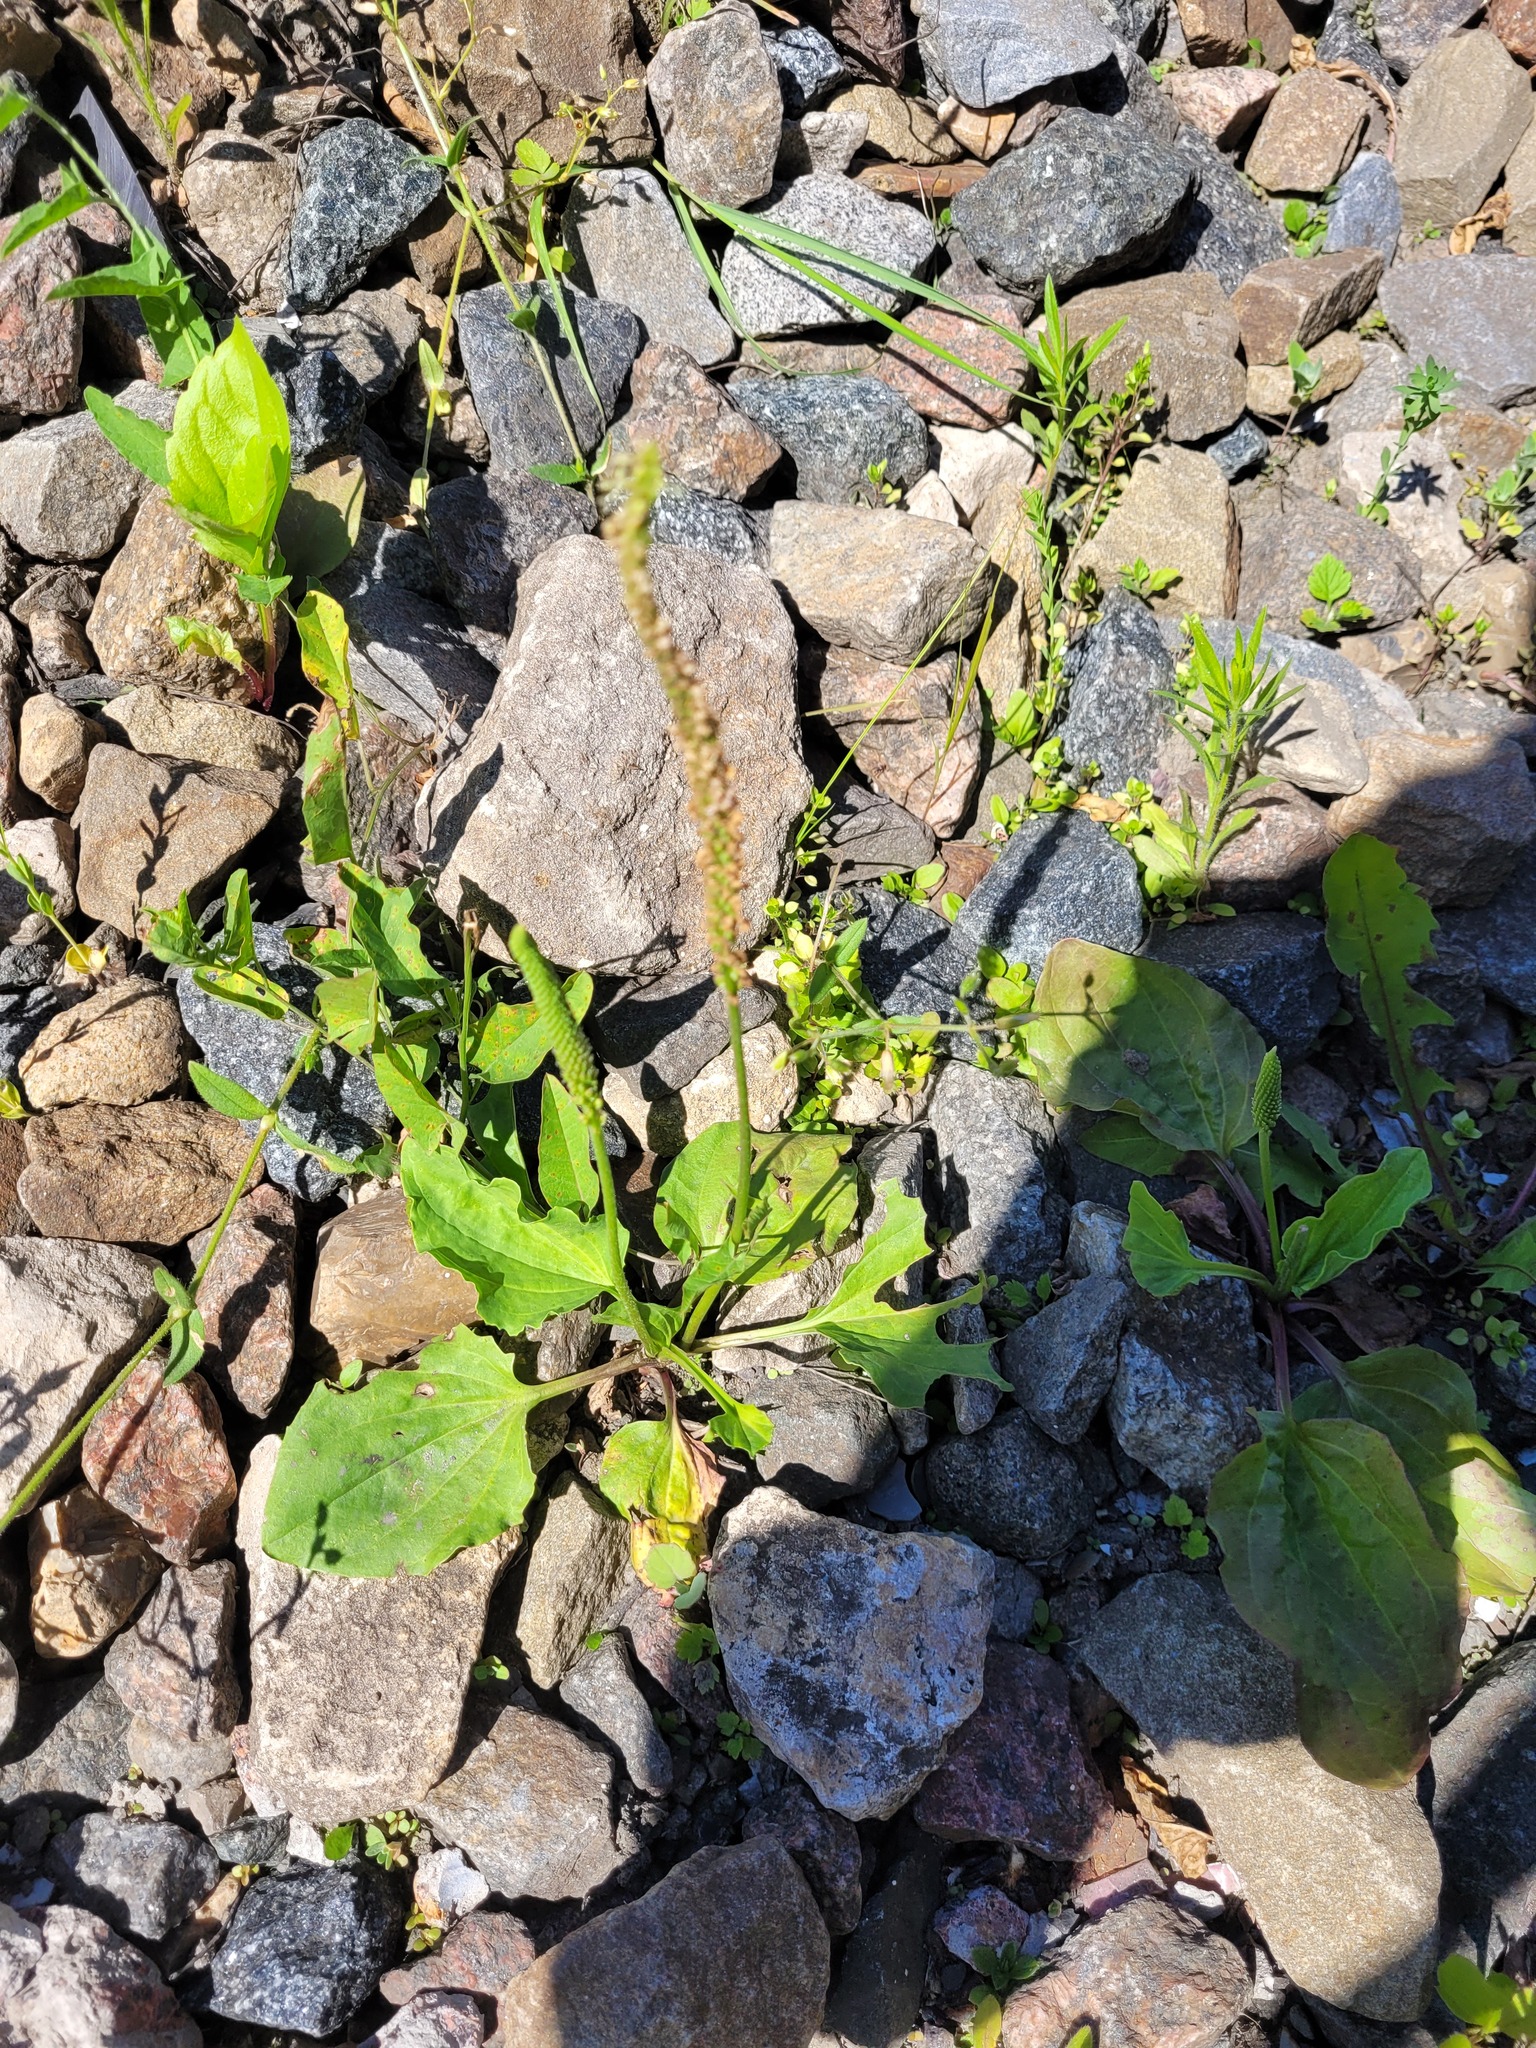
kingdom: Plantae
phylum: Tracheophyta
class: Magnoliopsida
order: Lamiales
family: Plantaginaceae
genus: Plantago
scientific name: Plantago major
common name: Common plantain
